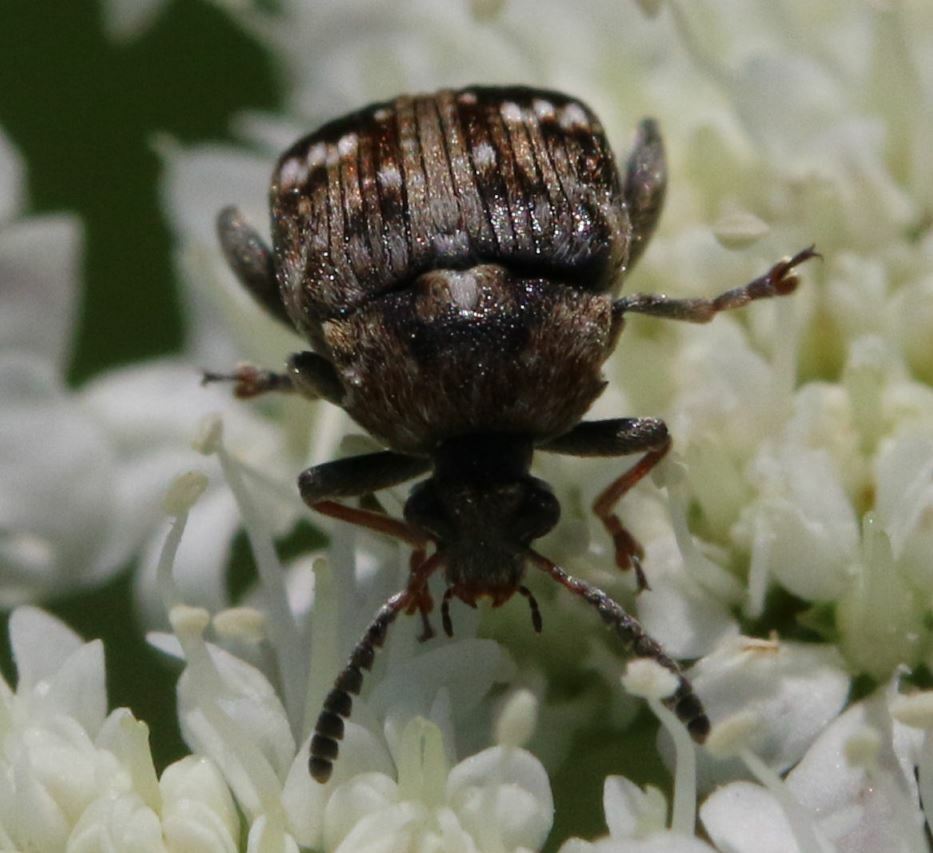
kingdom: Animalia
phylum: Arthropoda
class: Insecta
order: Coleoptera
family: Chrysomelidae
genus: Bruchus
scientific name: Bruchus pisorum
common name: Pea weevil
